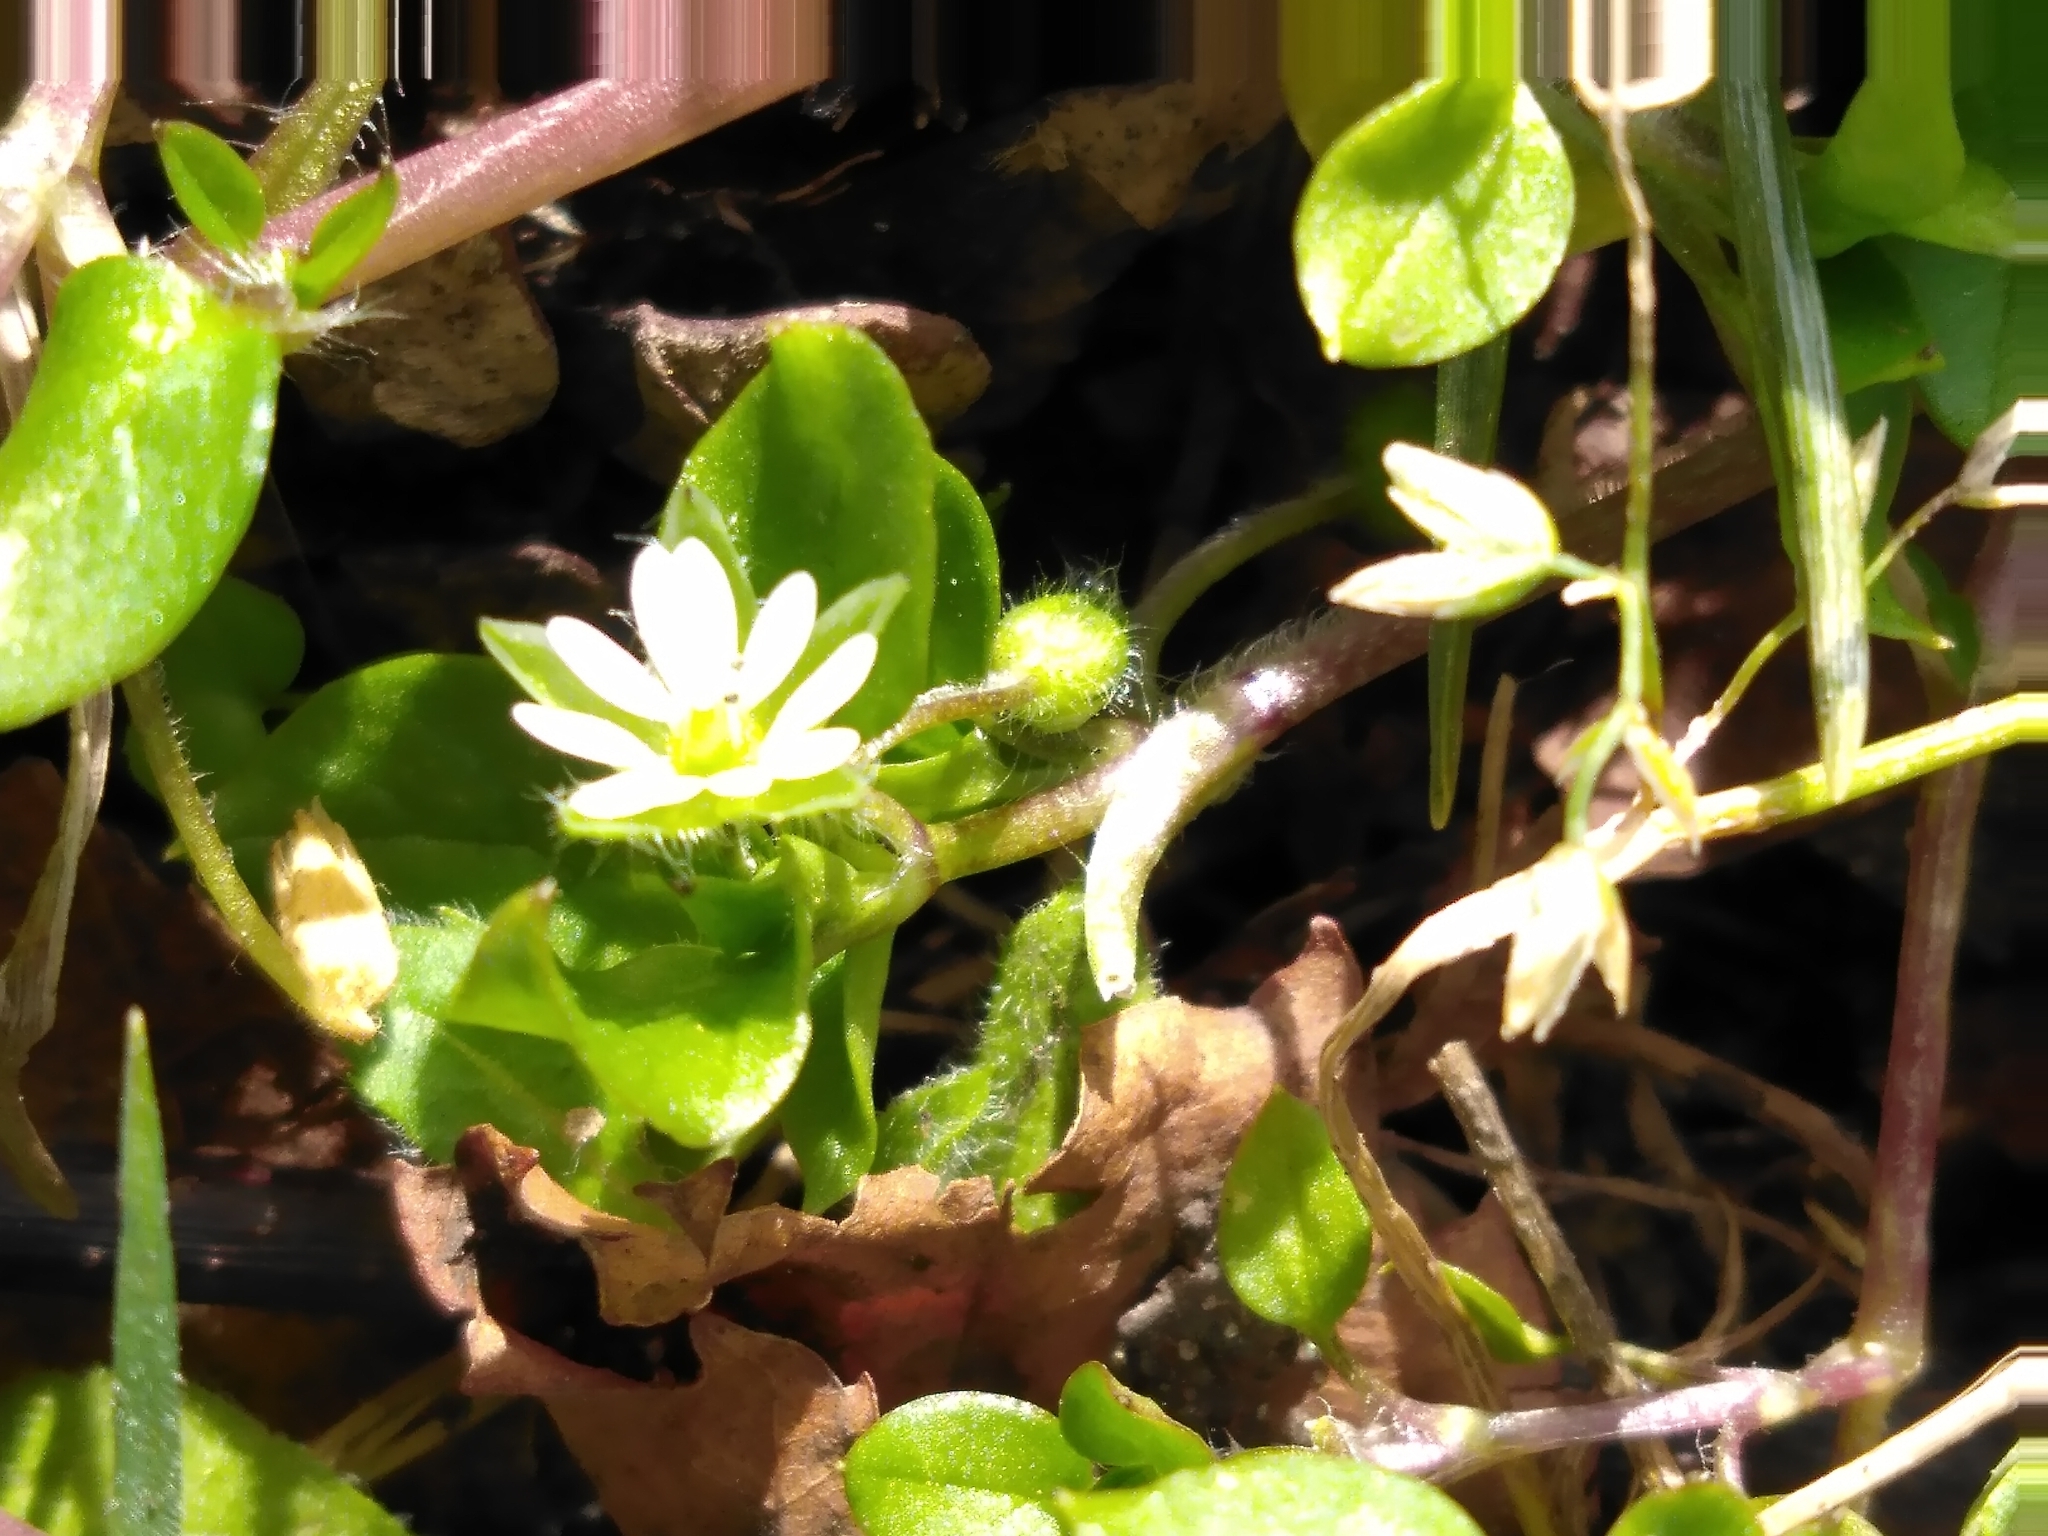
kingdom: Plantae
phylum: Tracheophyta
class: Magnoliopsida
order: Caryophyllales
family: Caryophyllaceae
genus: Stellaria
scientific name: Stellaria media
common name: Common chickweed
